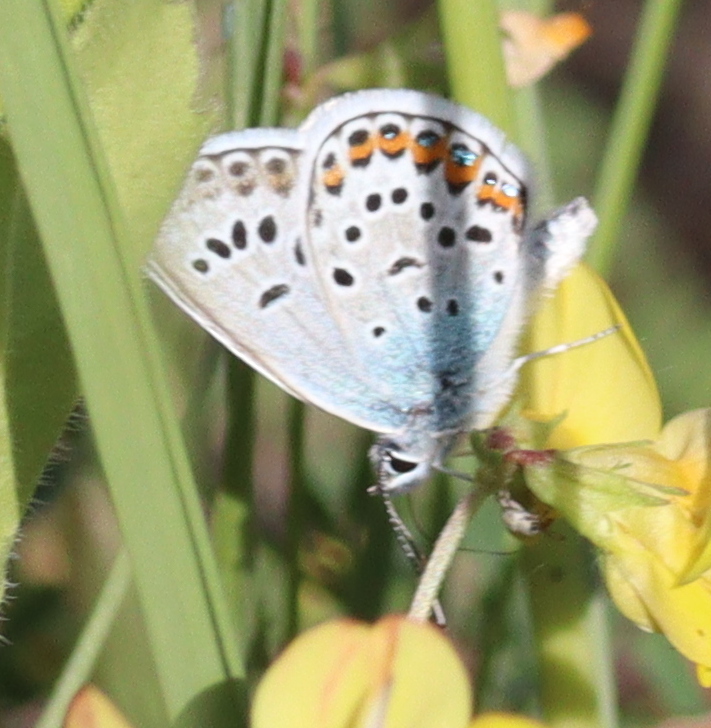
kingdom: Animalia
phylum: Arthropoda
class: Insecta
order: Lepidoptera
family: Lycaenidae
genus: Plebejus
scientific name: Plebejus argus
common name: Silver-studded blue
